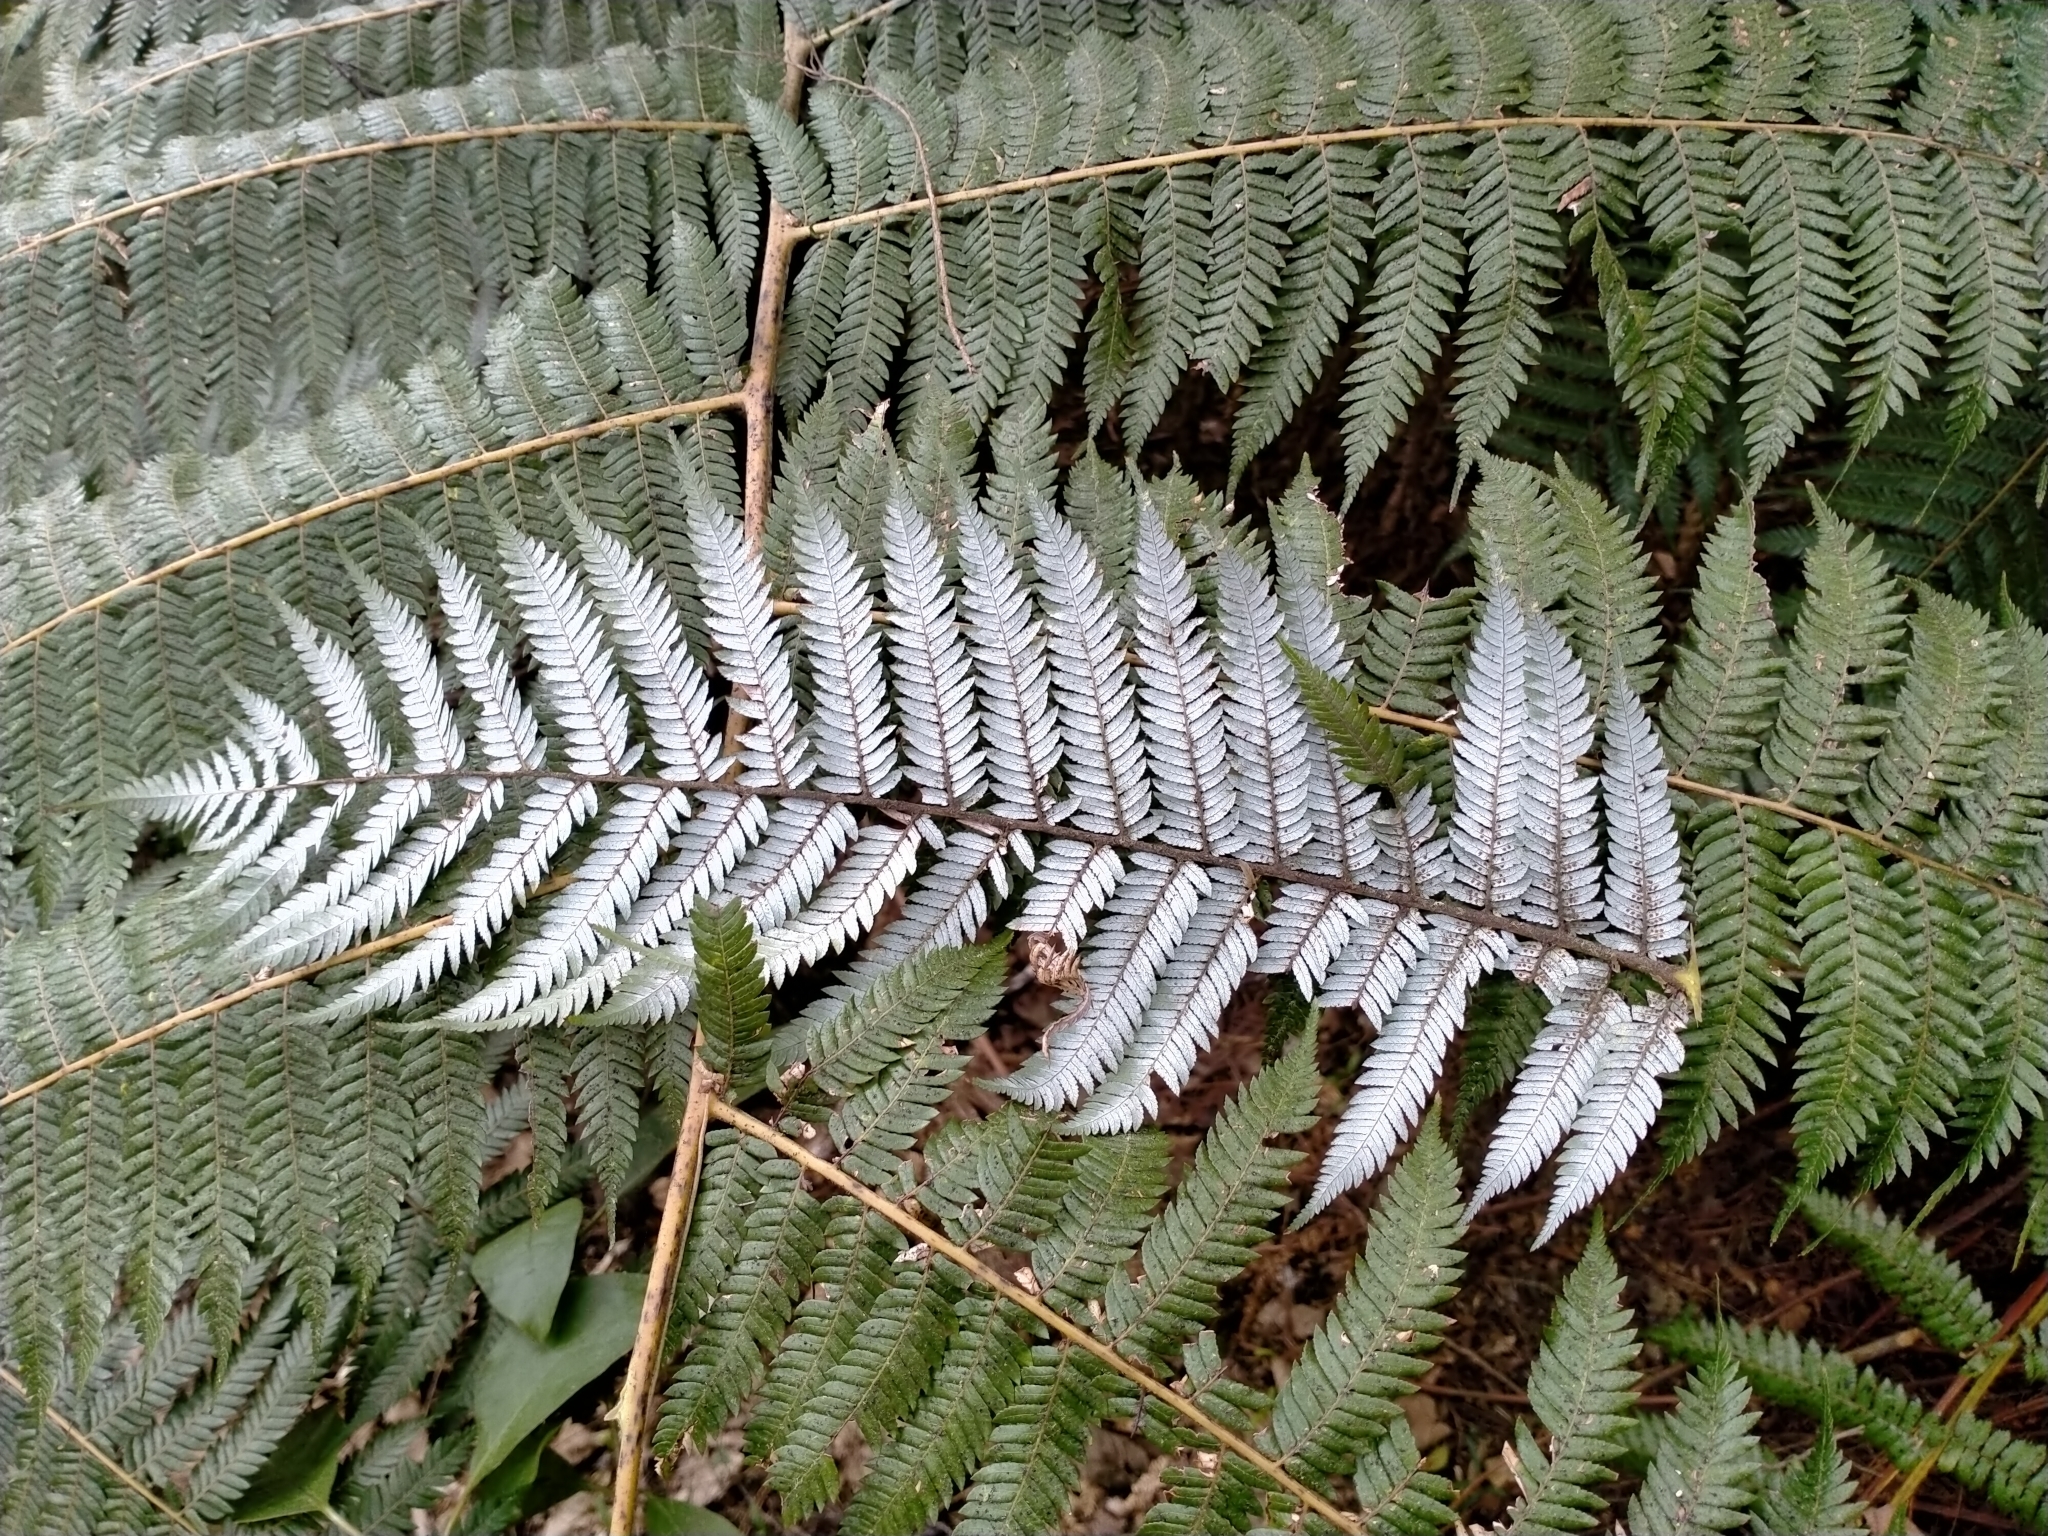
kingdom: Plantae
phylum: Tracheophyta
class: Polypodiopsida
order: Cyatheales
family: Cyatheaceae
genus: Alsophila
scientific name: Alsophila dealbata
